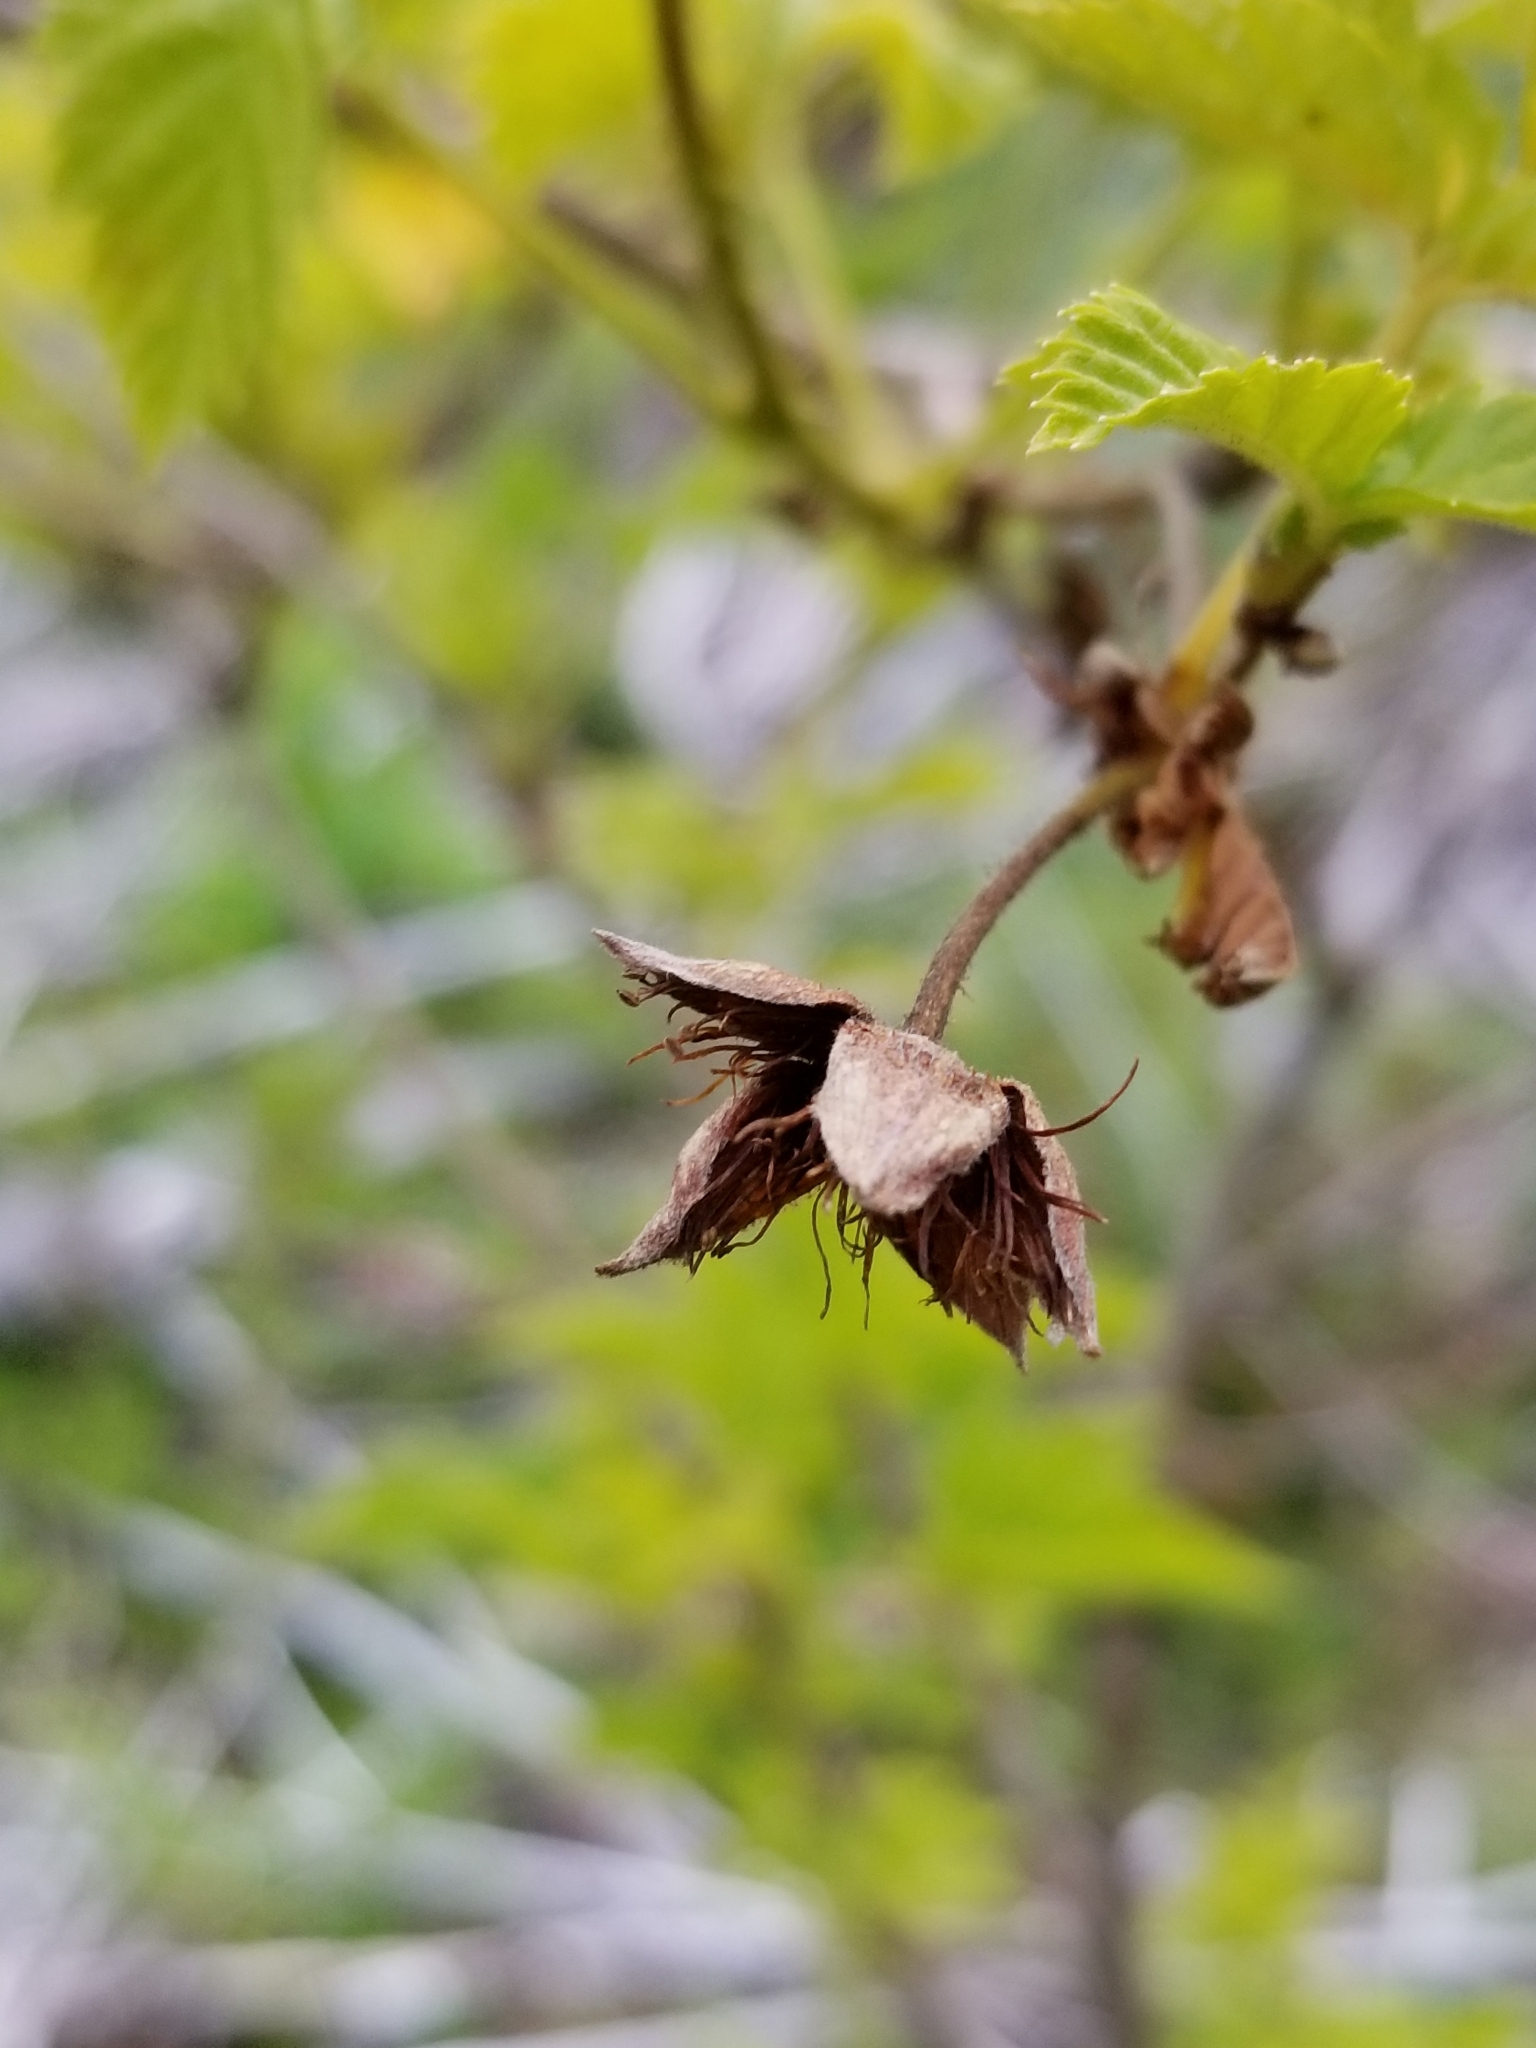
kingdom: Plantae
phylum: Tracheophyta
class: Magnoliopsida
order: Rosales
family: Rosaceae
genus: Rubus
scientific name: Rubus spectabilis
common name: Salmonberry
